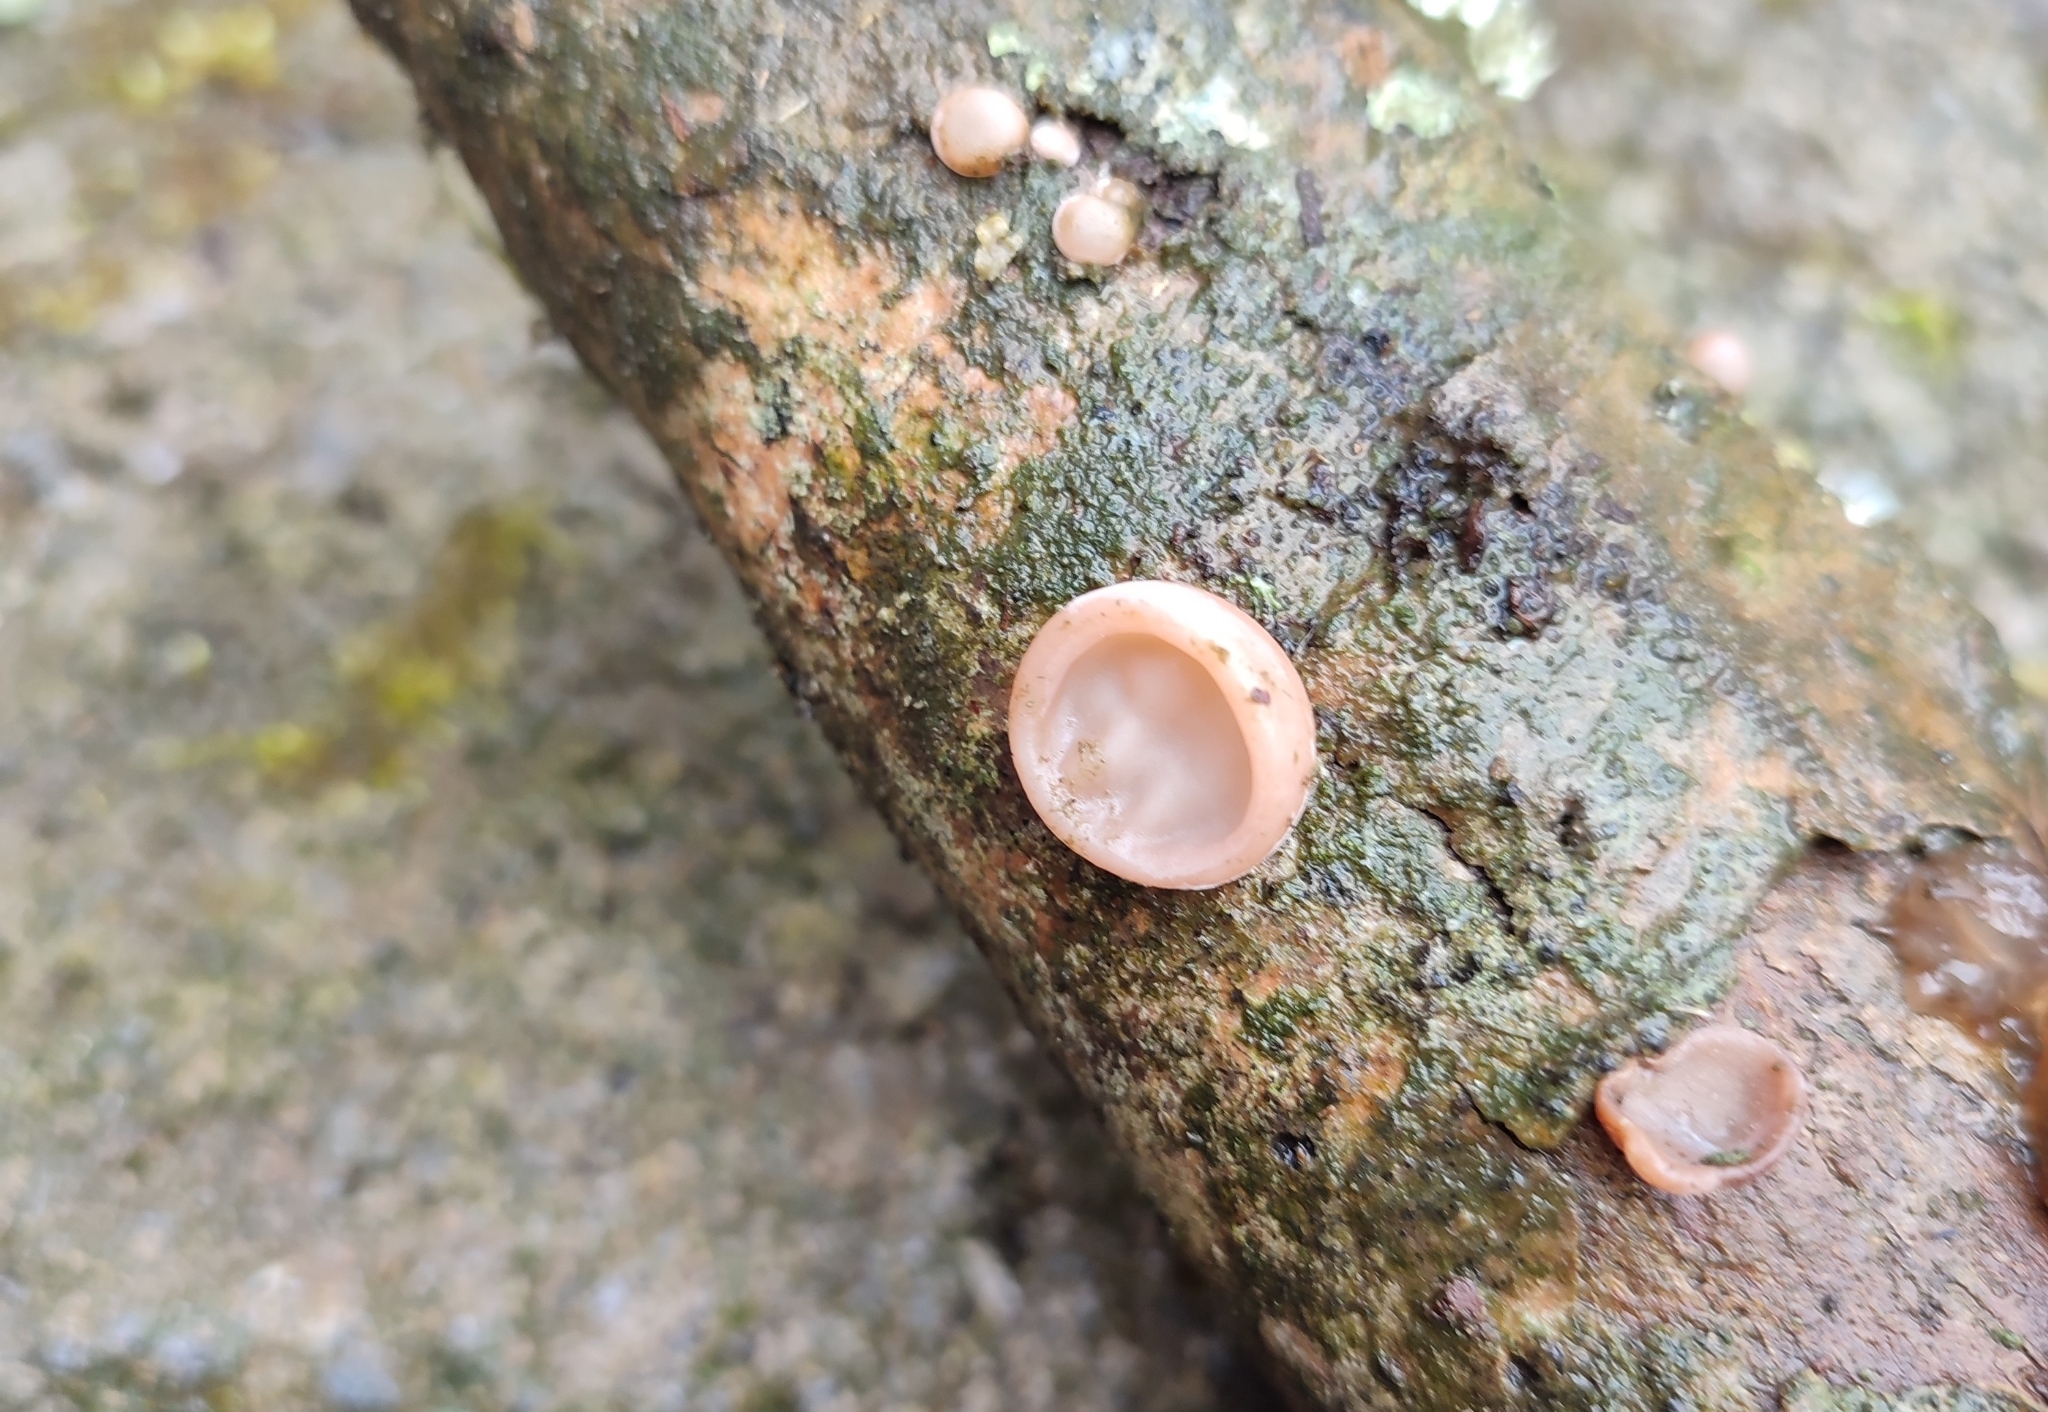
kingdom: Fungi
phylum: Basidiomycota
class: Agaricomycetes
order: Auriculariales
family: Auriculariaceae
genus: Auricularia
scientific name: Auricularia auricula-judae
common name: Jelly ear
